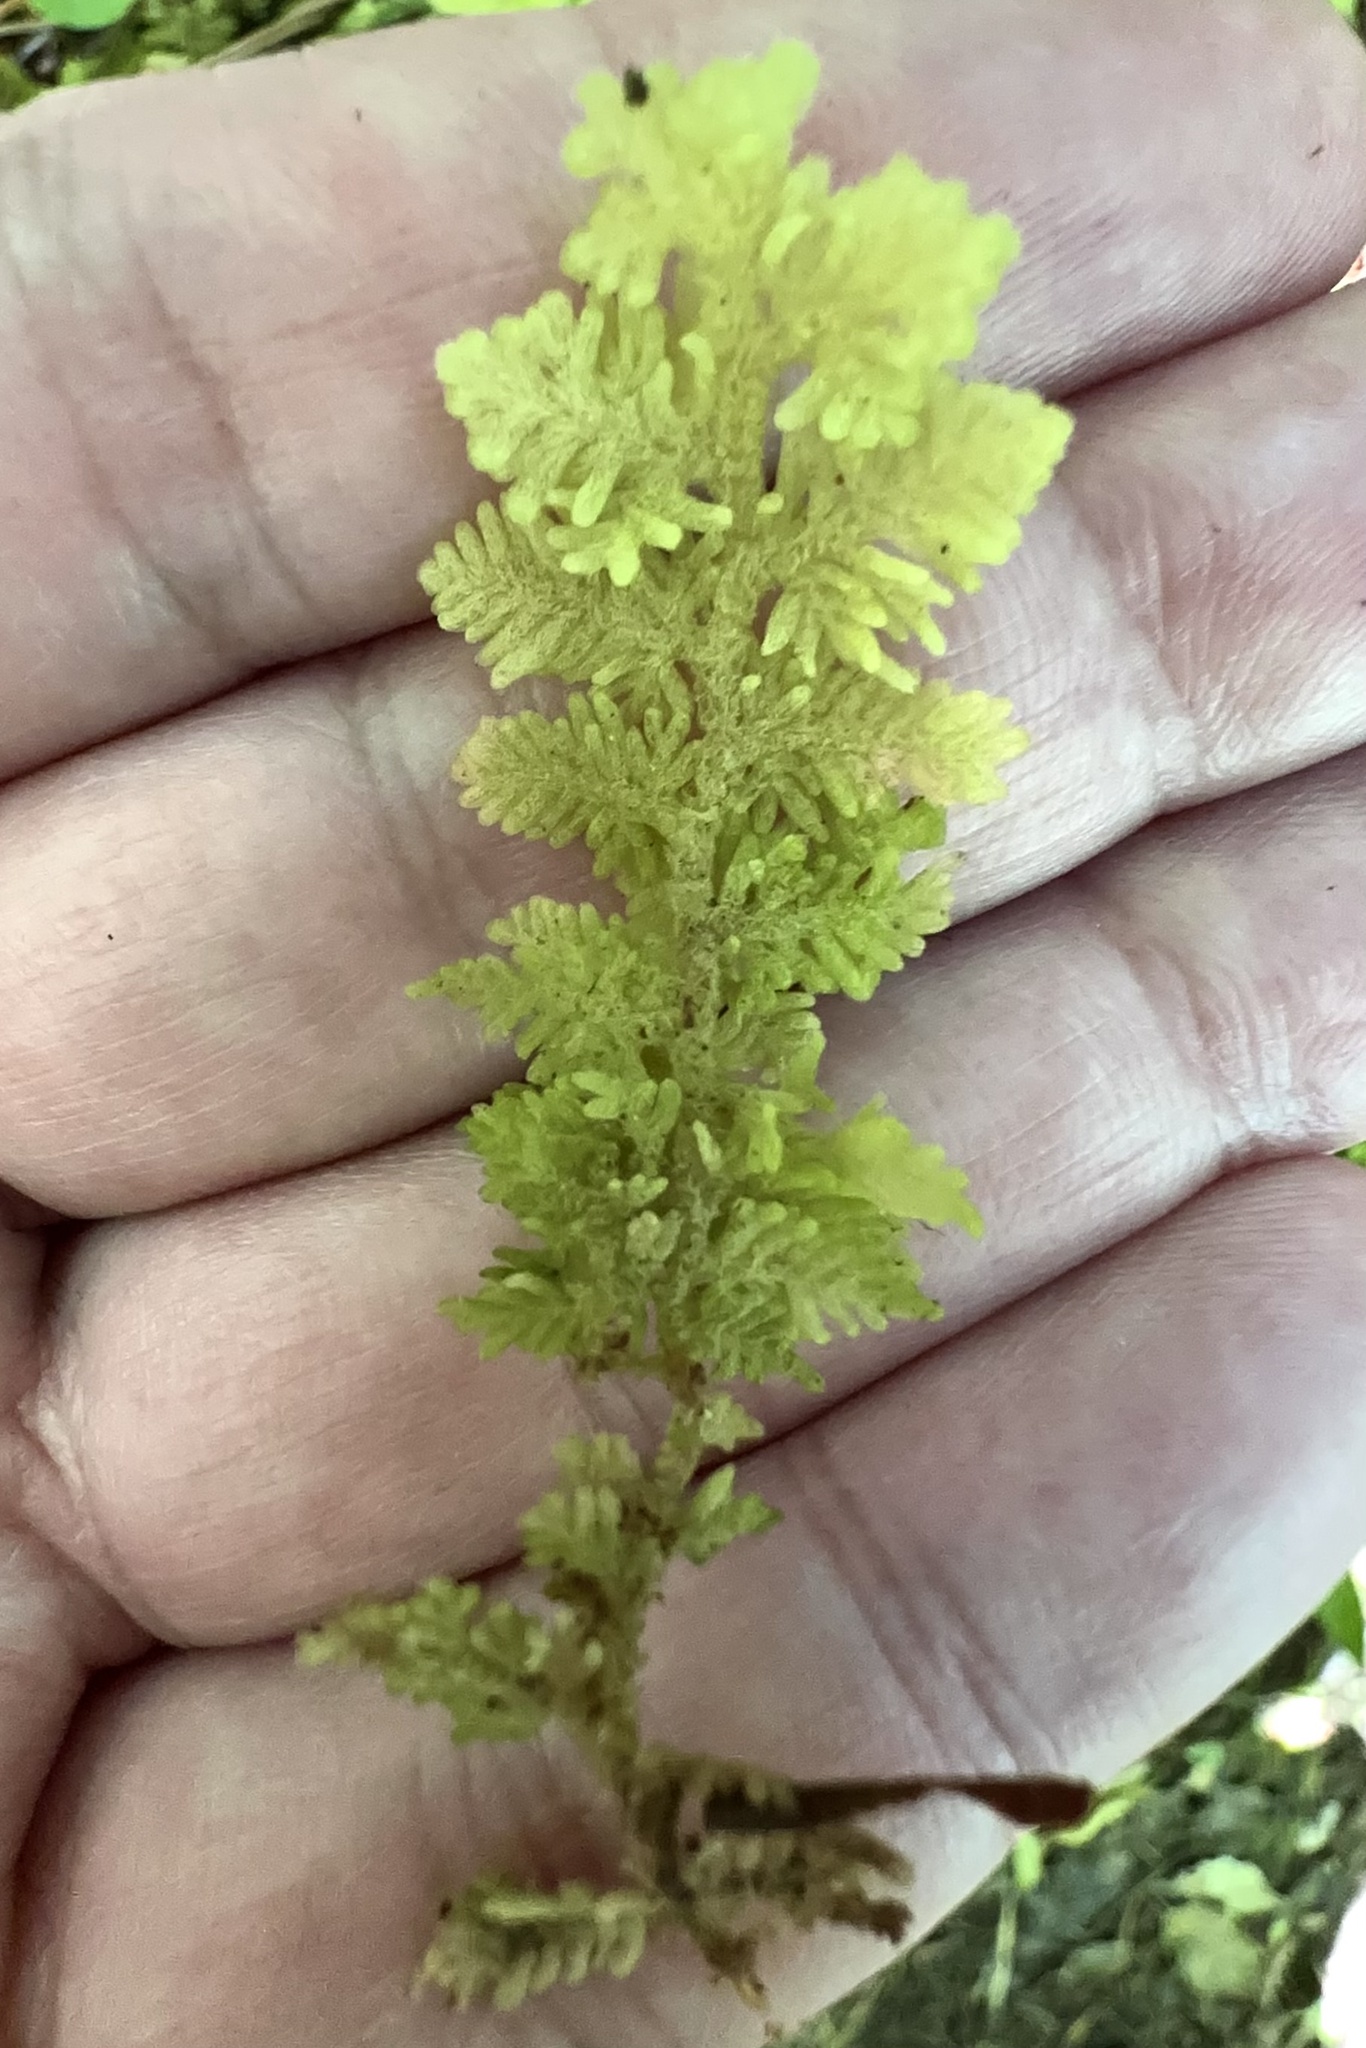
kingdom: Plantae
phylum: Marchantiophyta
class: Jungermanniopsida
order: Jungermanniales
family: Trichocoleaceae
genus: Trichocolea
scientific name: Trichocolea mollissima
